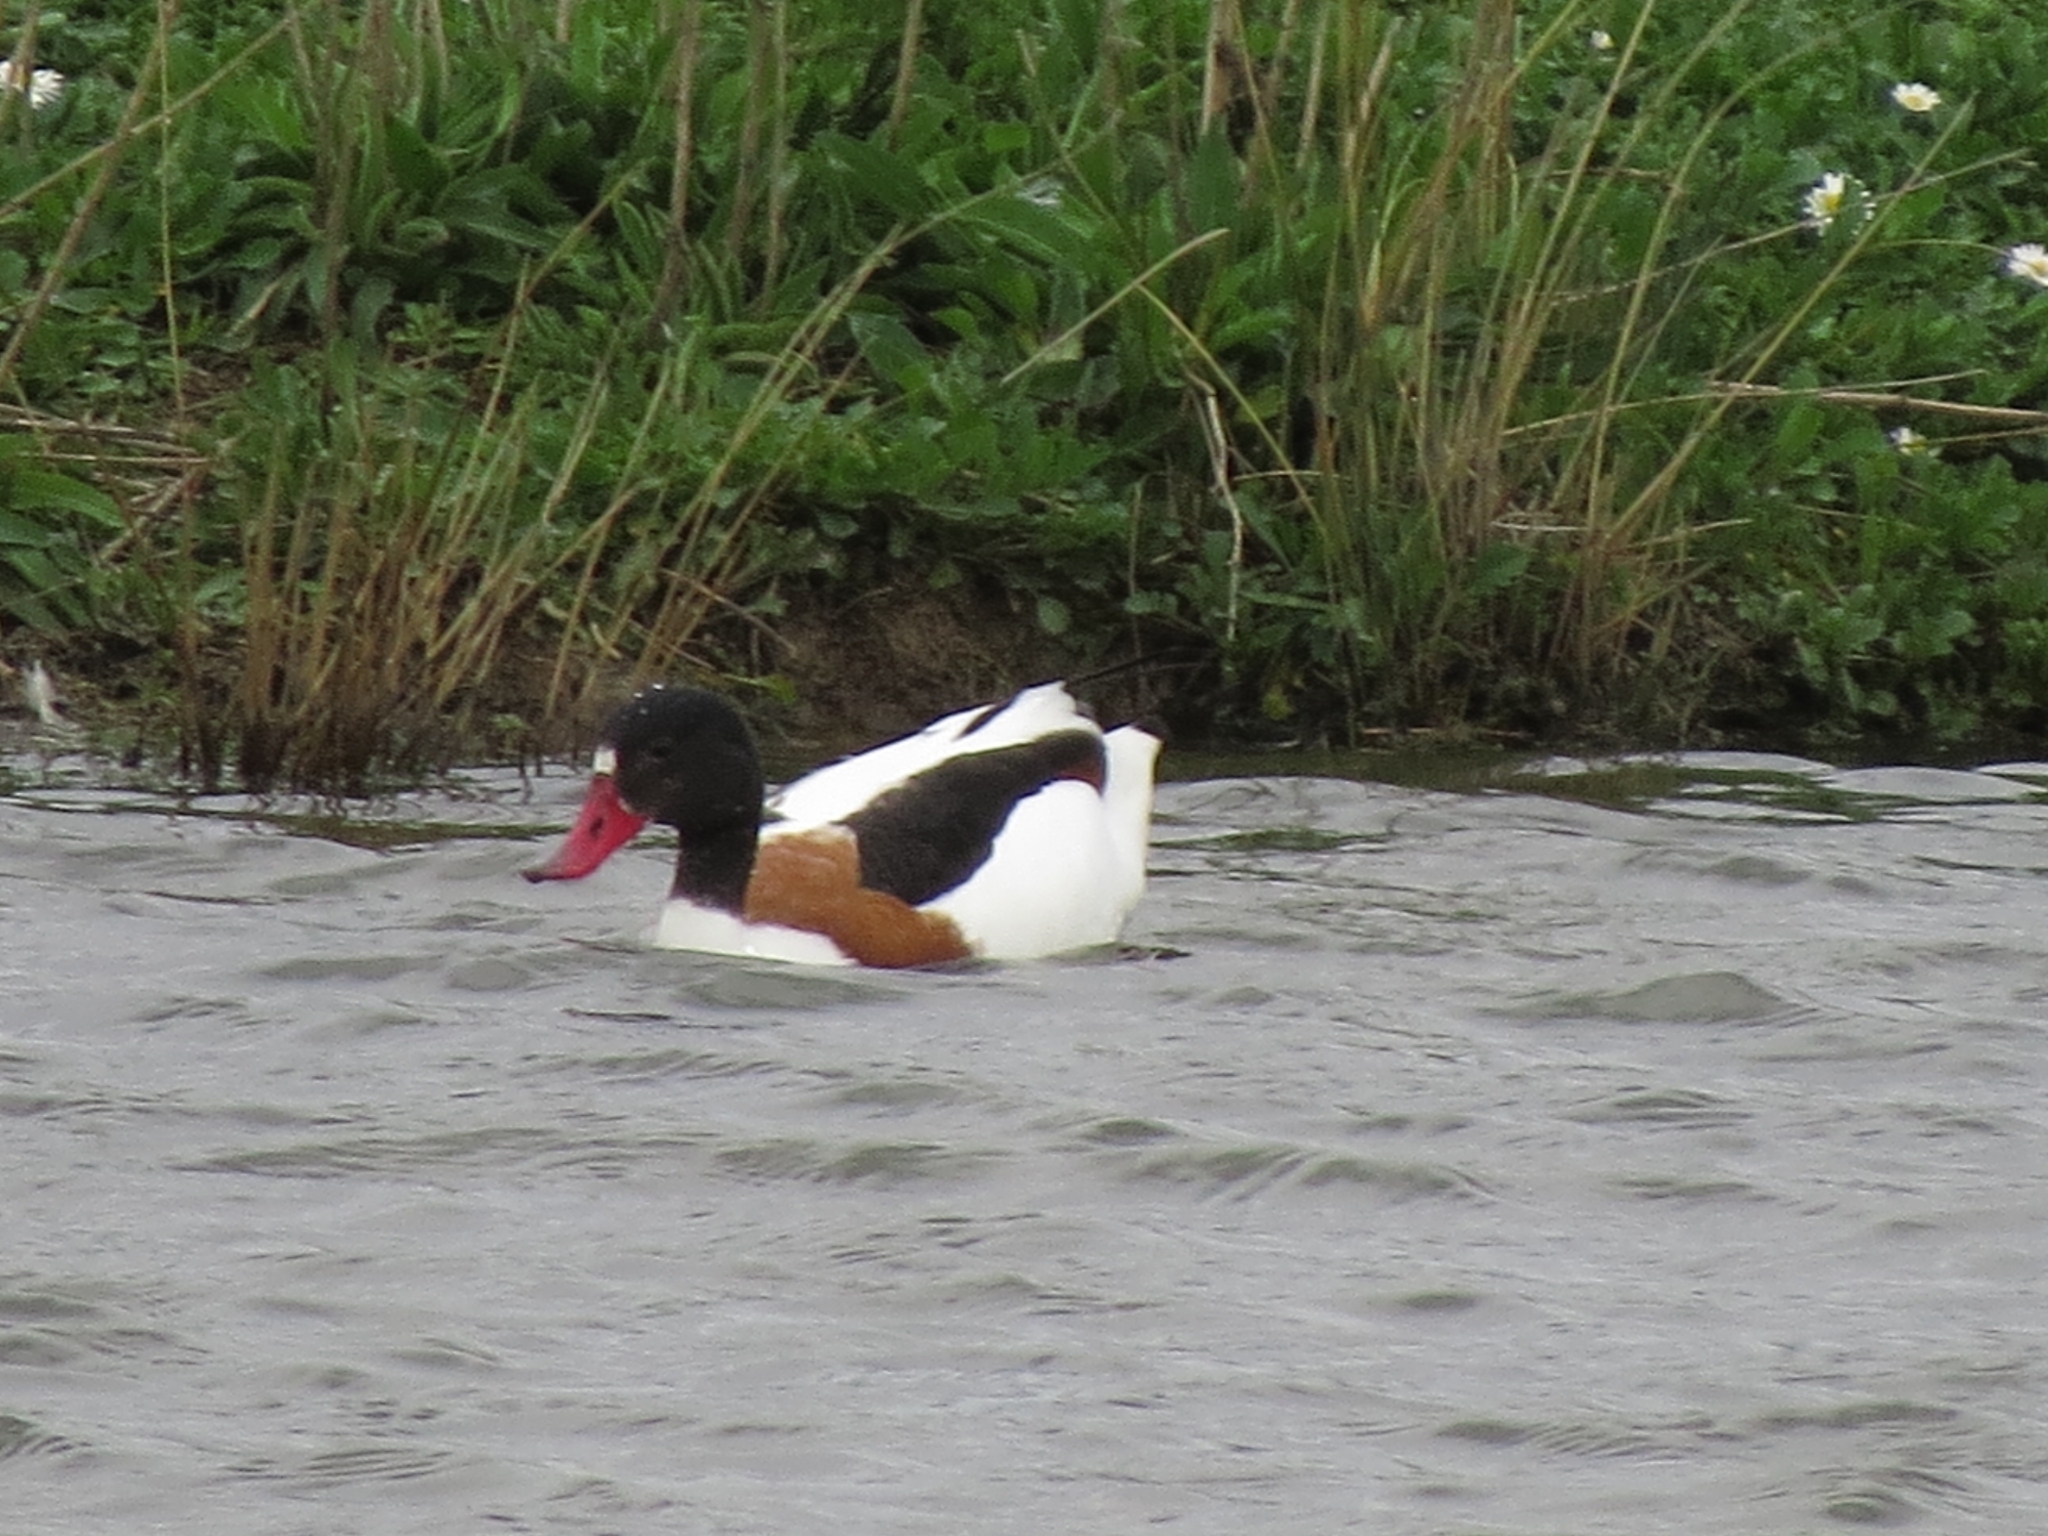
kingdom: Animalia
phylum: Chordata
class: Aves
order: Anseriformes
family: Anatidae
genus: Tadorna
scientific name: Tadorna tadorna
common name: Common shelduck
